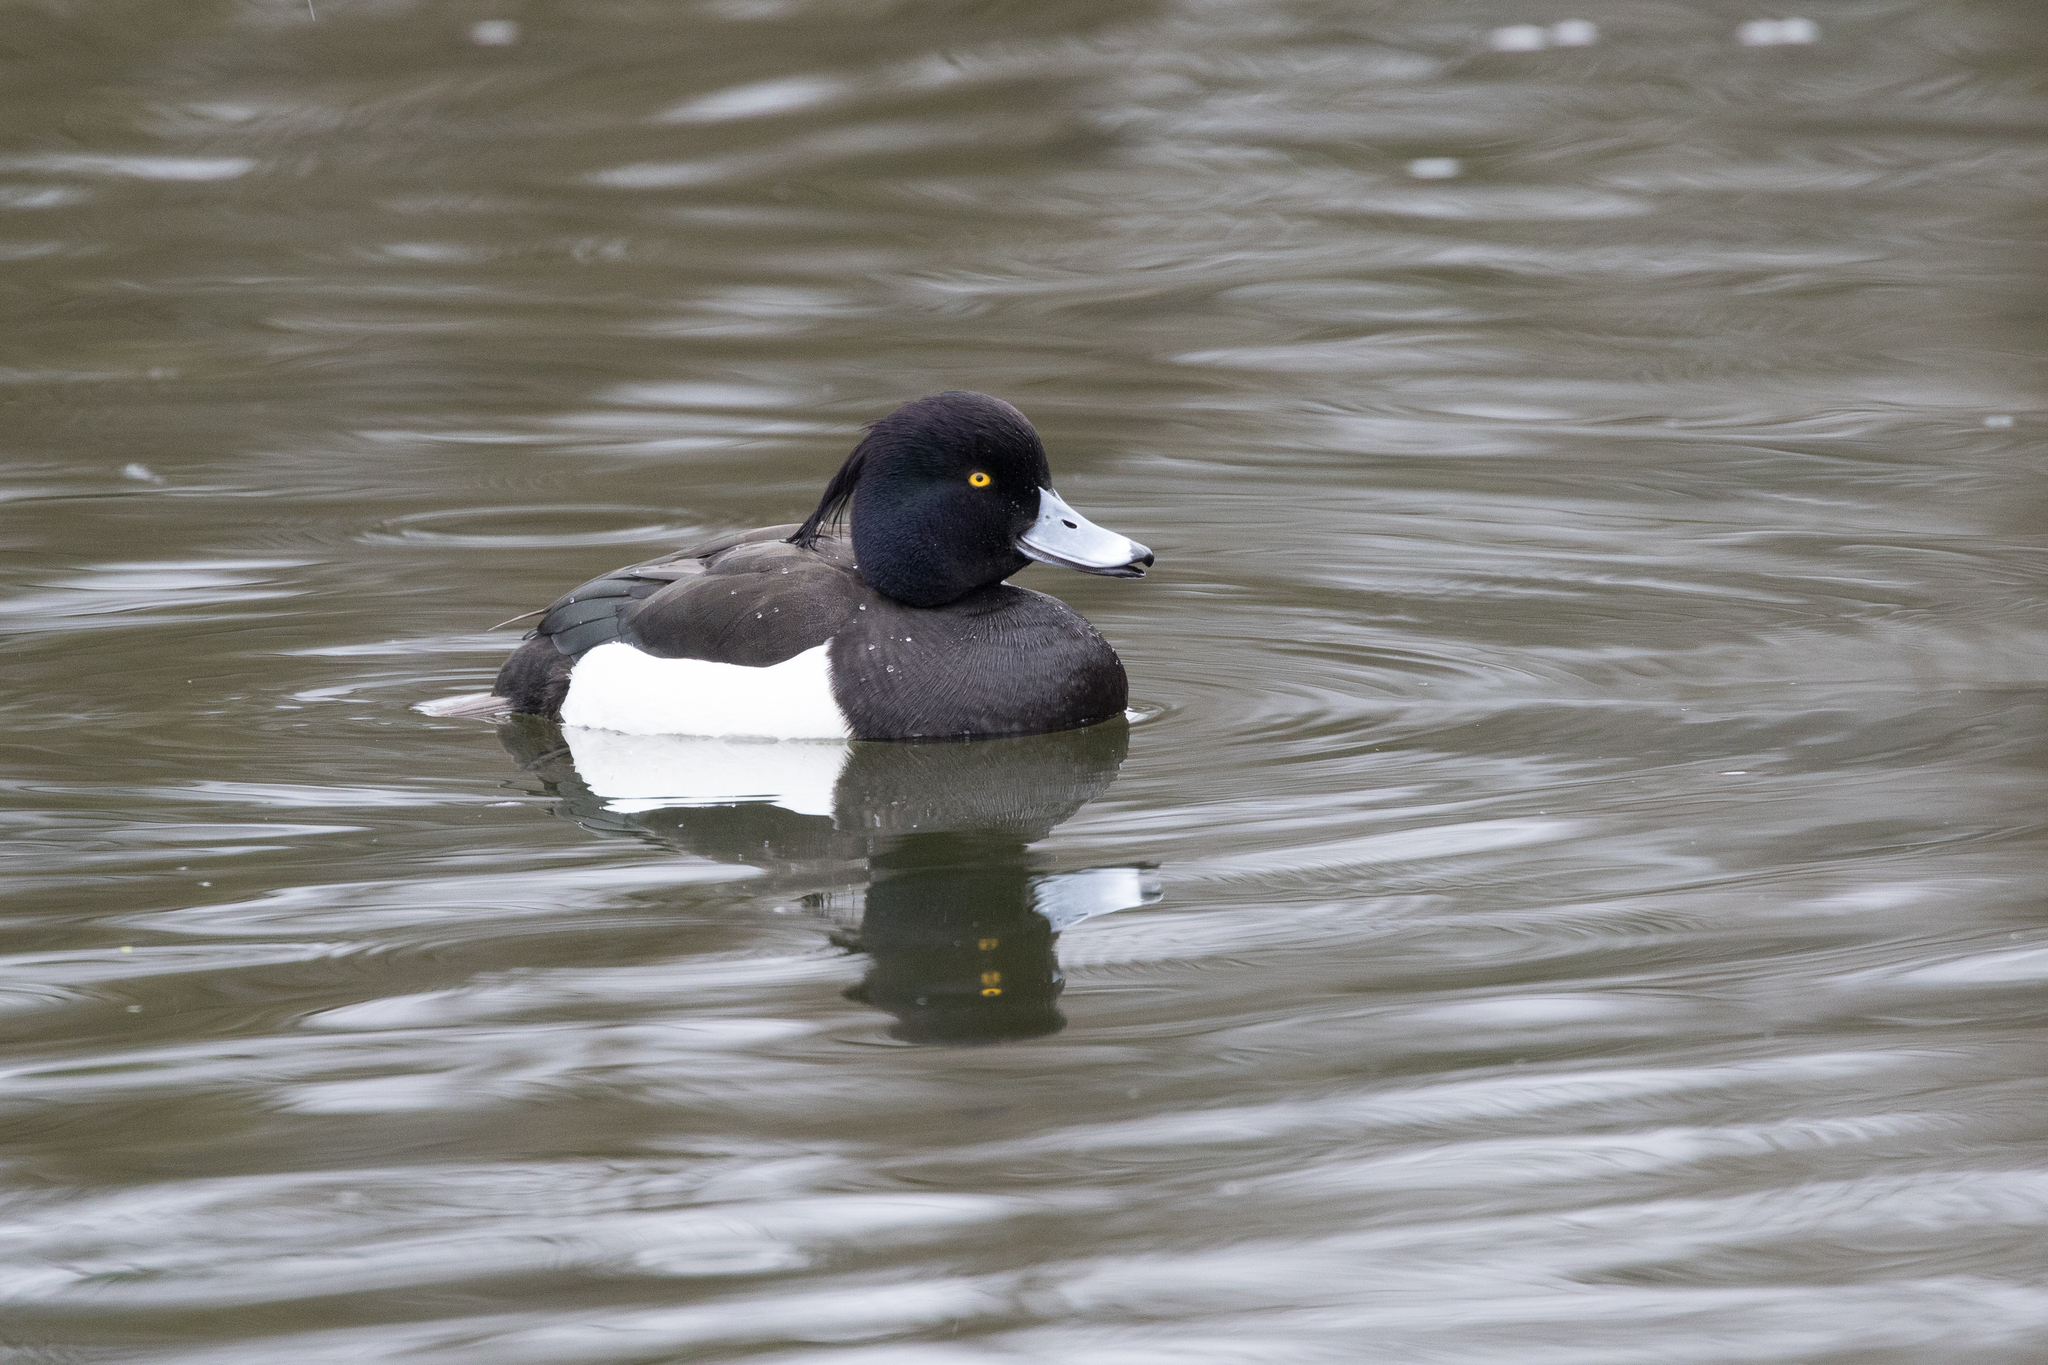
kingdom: Animalia
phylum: Chordata
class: Aves
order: Anseriformes
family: Anatidae
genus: Aythya
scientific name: Aythya fuligula
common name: Tufted duck
